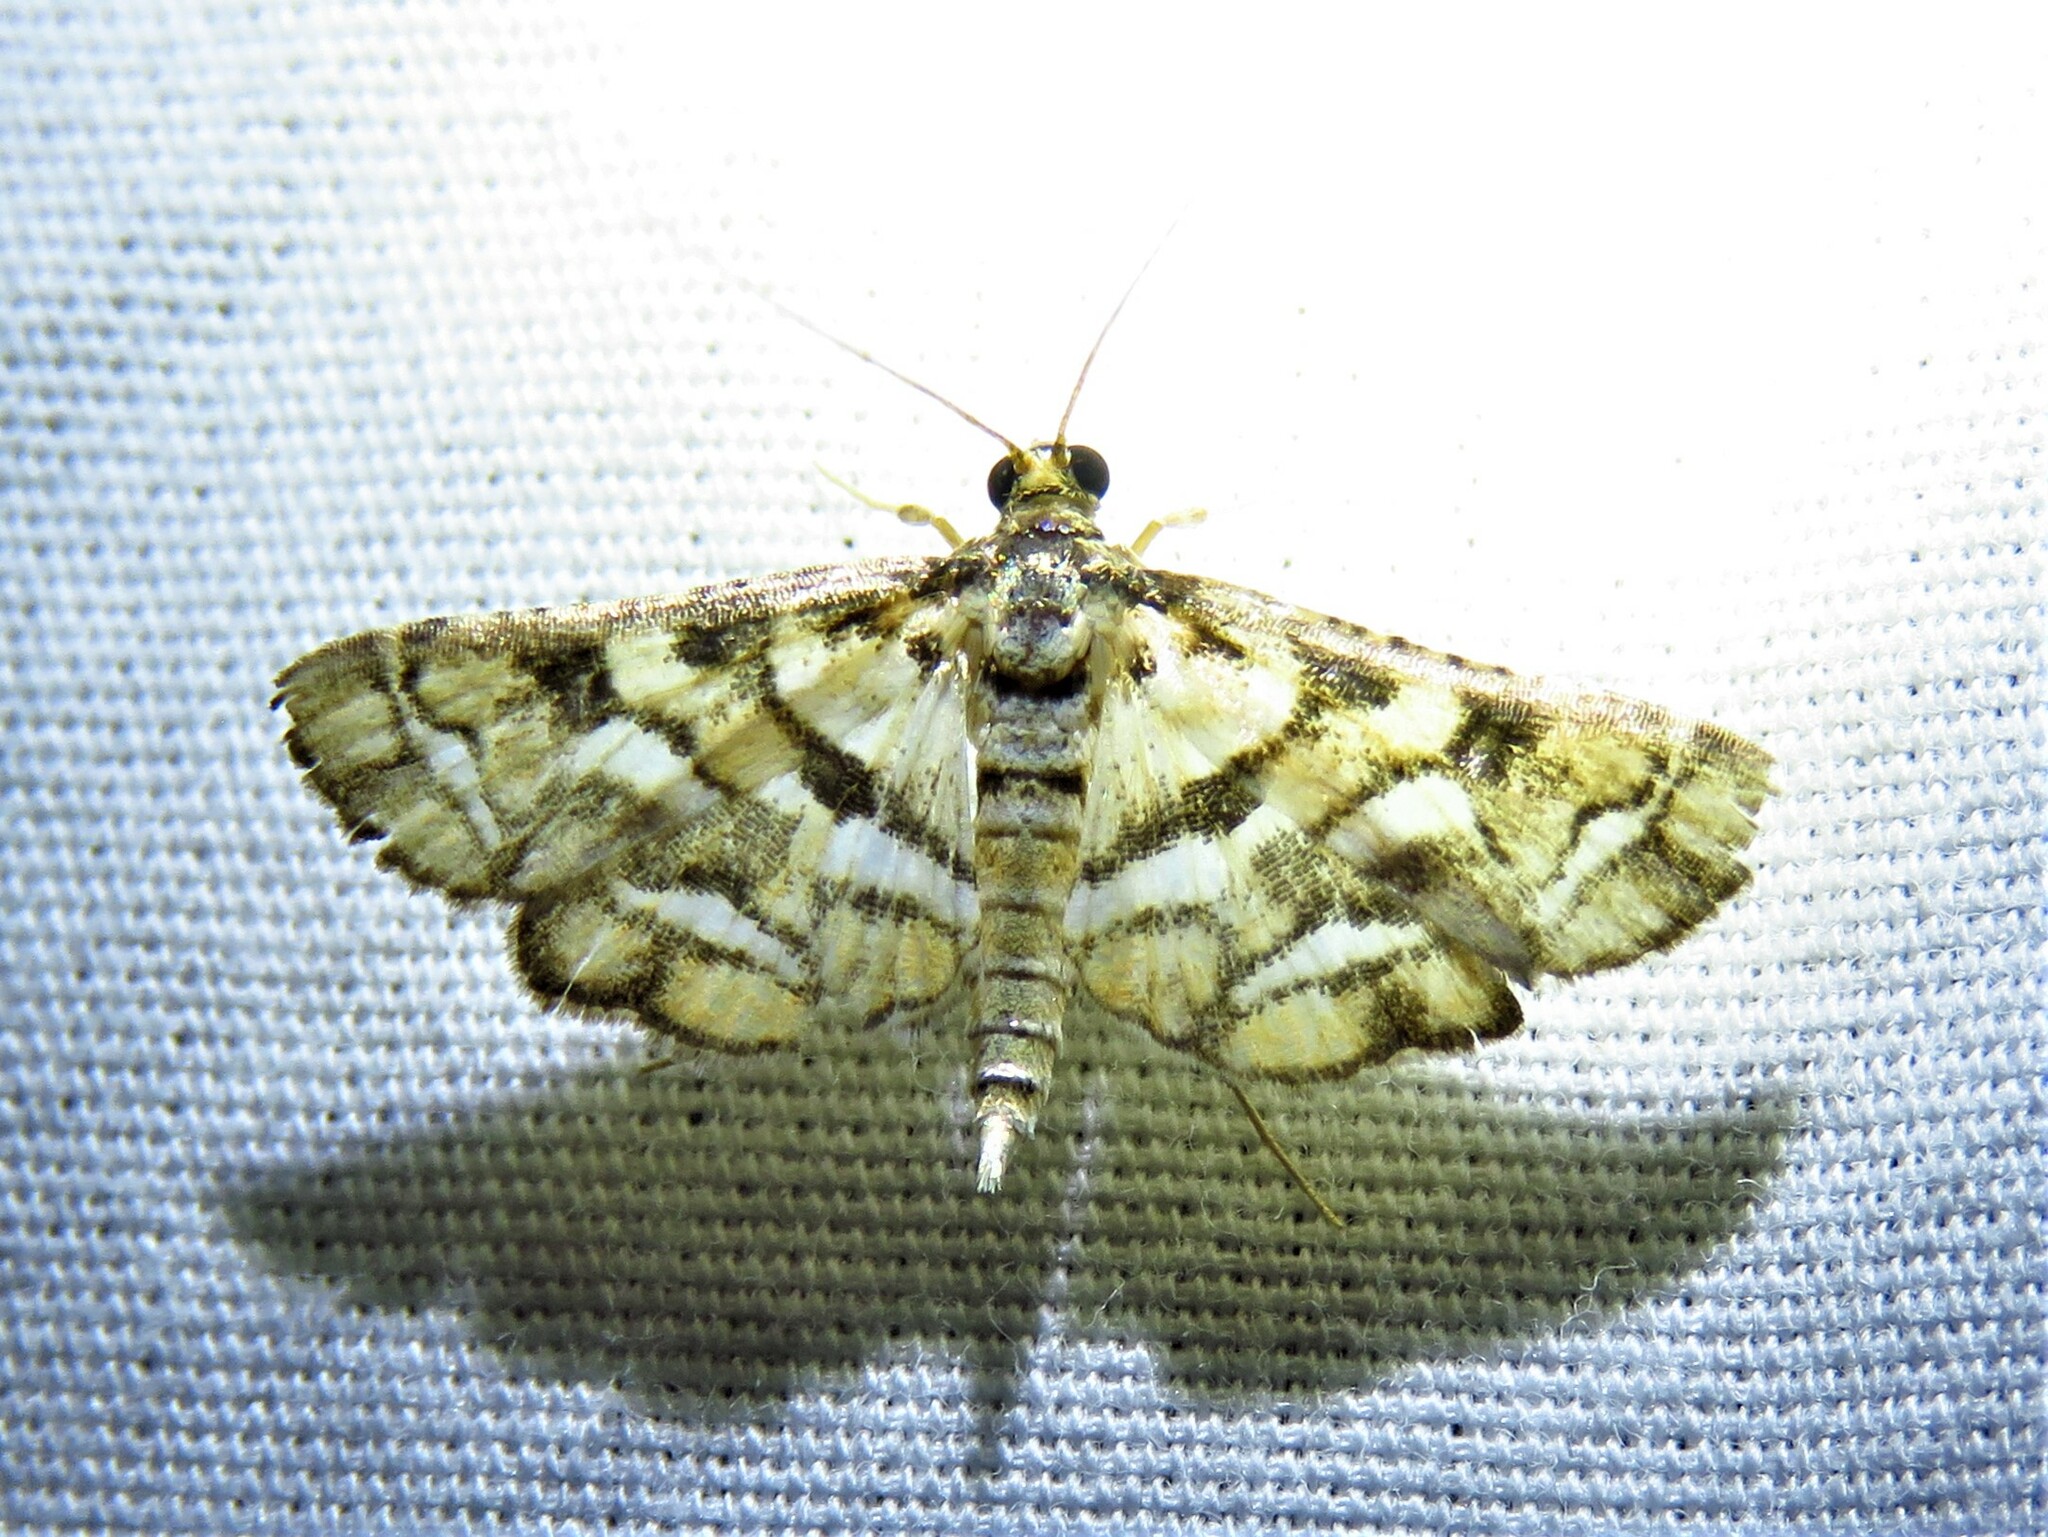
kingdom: Animalia
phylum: Arthropoda
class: Insecta
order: Lepidoptera
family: Crambidae
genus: Hileithia
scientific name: Hileithia magualis
